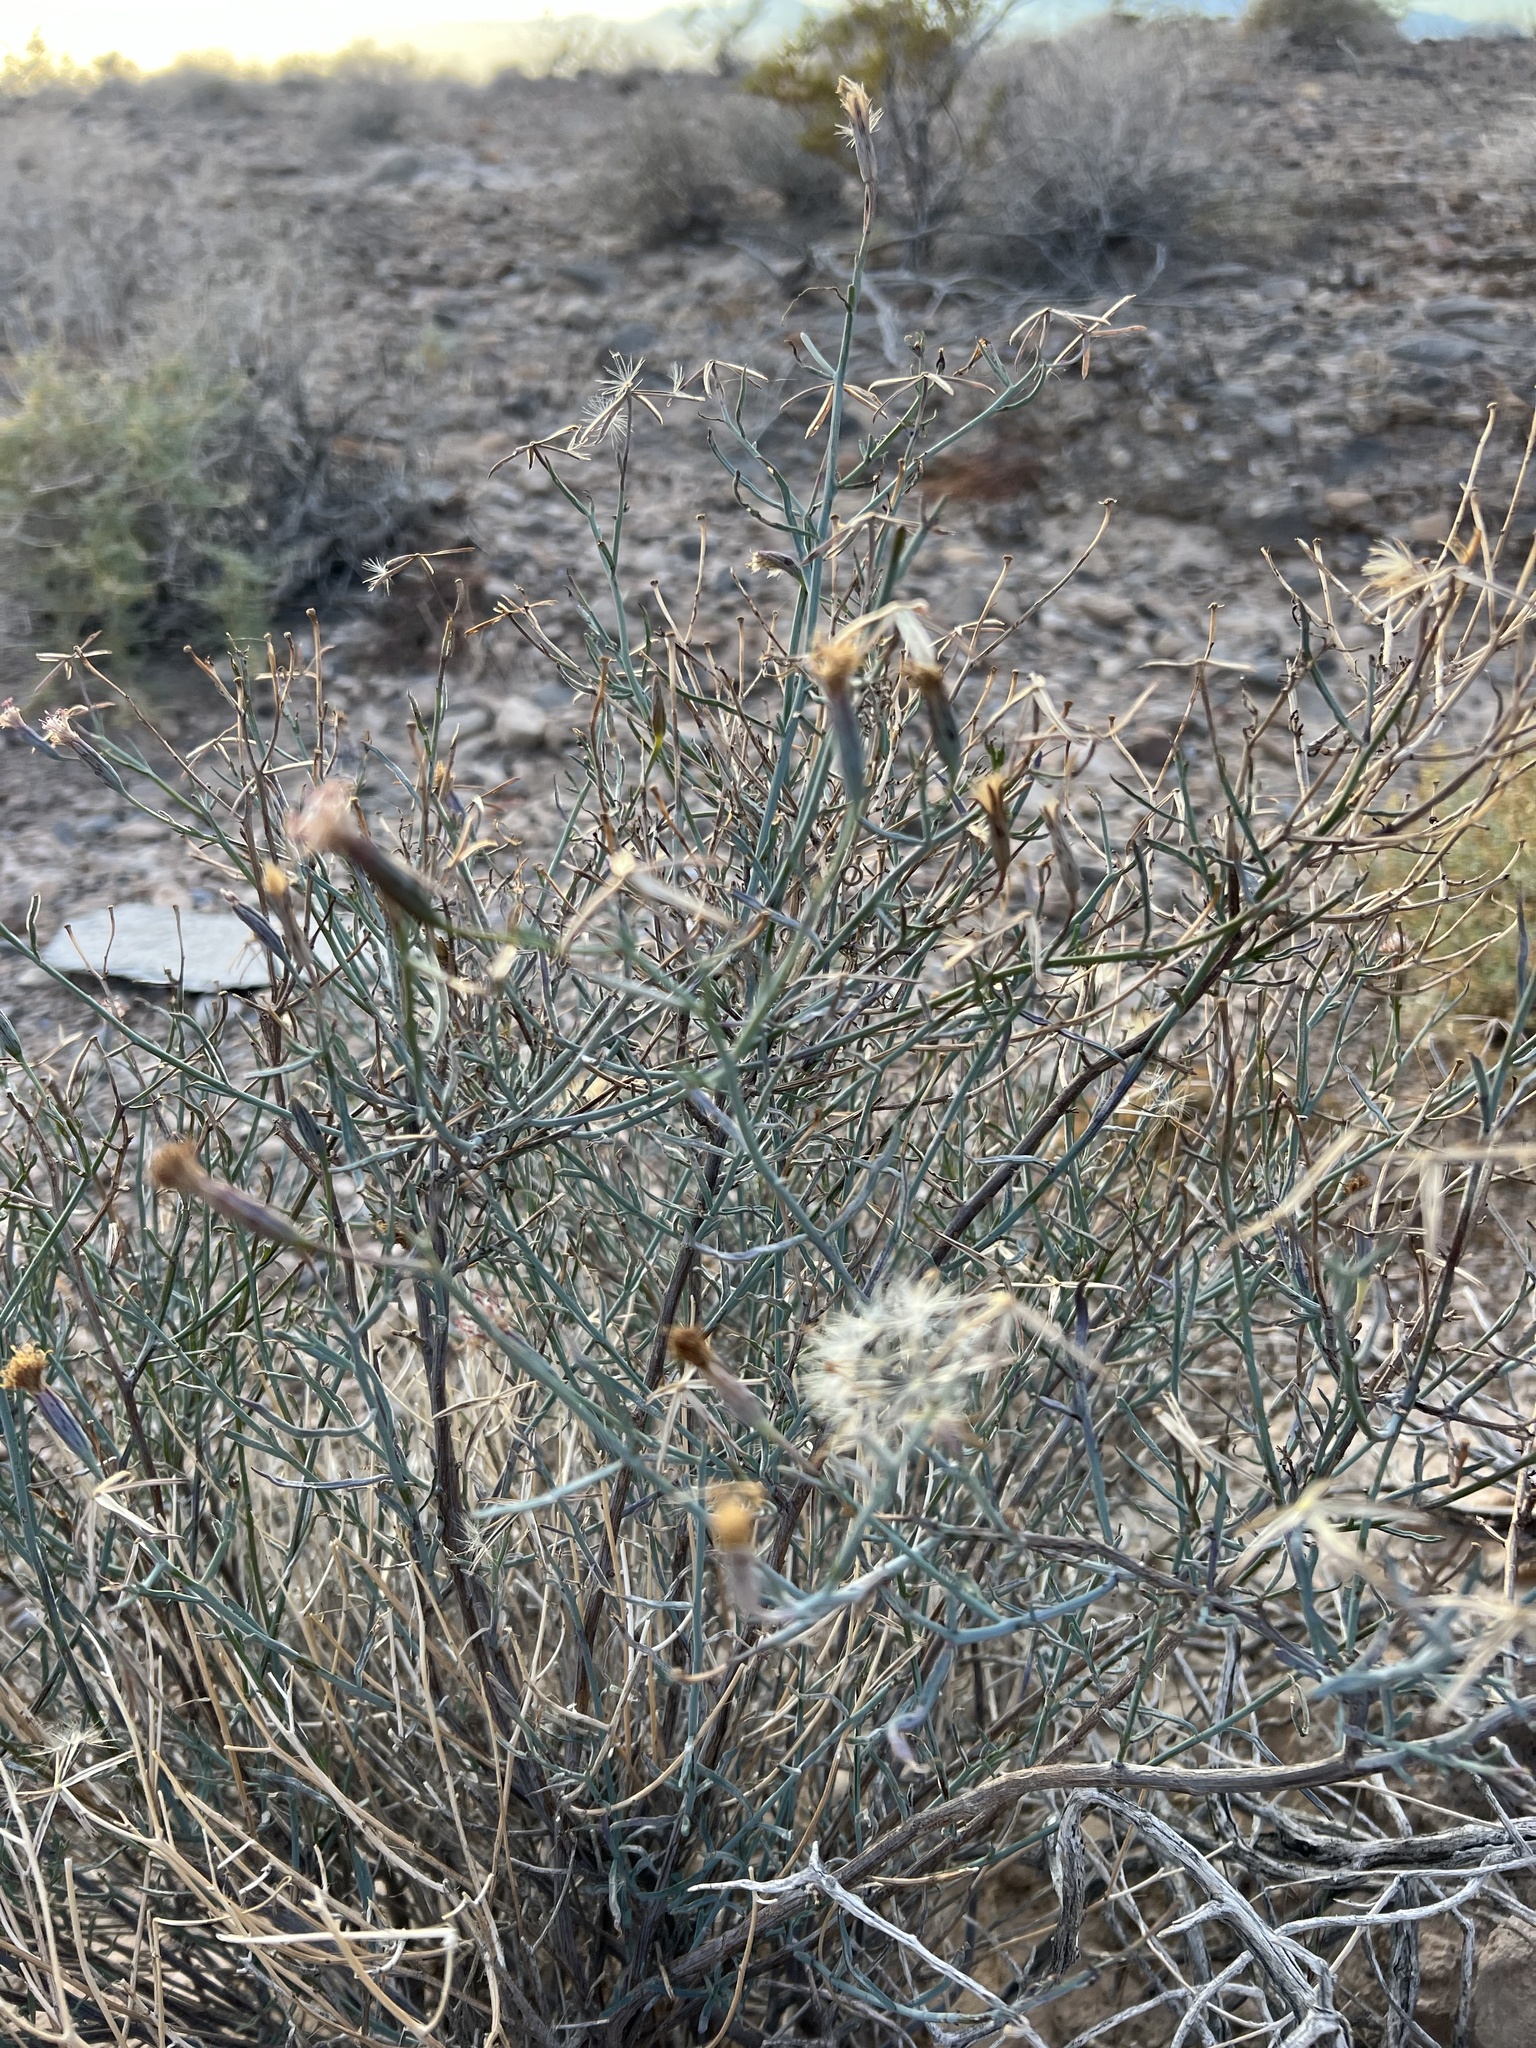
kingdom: Plantae
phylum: Tracheophyta
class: Magnoliopsida
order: Asterales
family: Asteraceae
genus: Porophyllum
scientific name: Porophyllum gracile
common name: Odora
